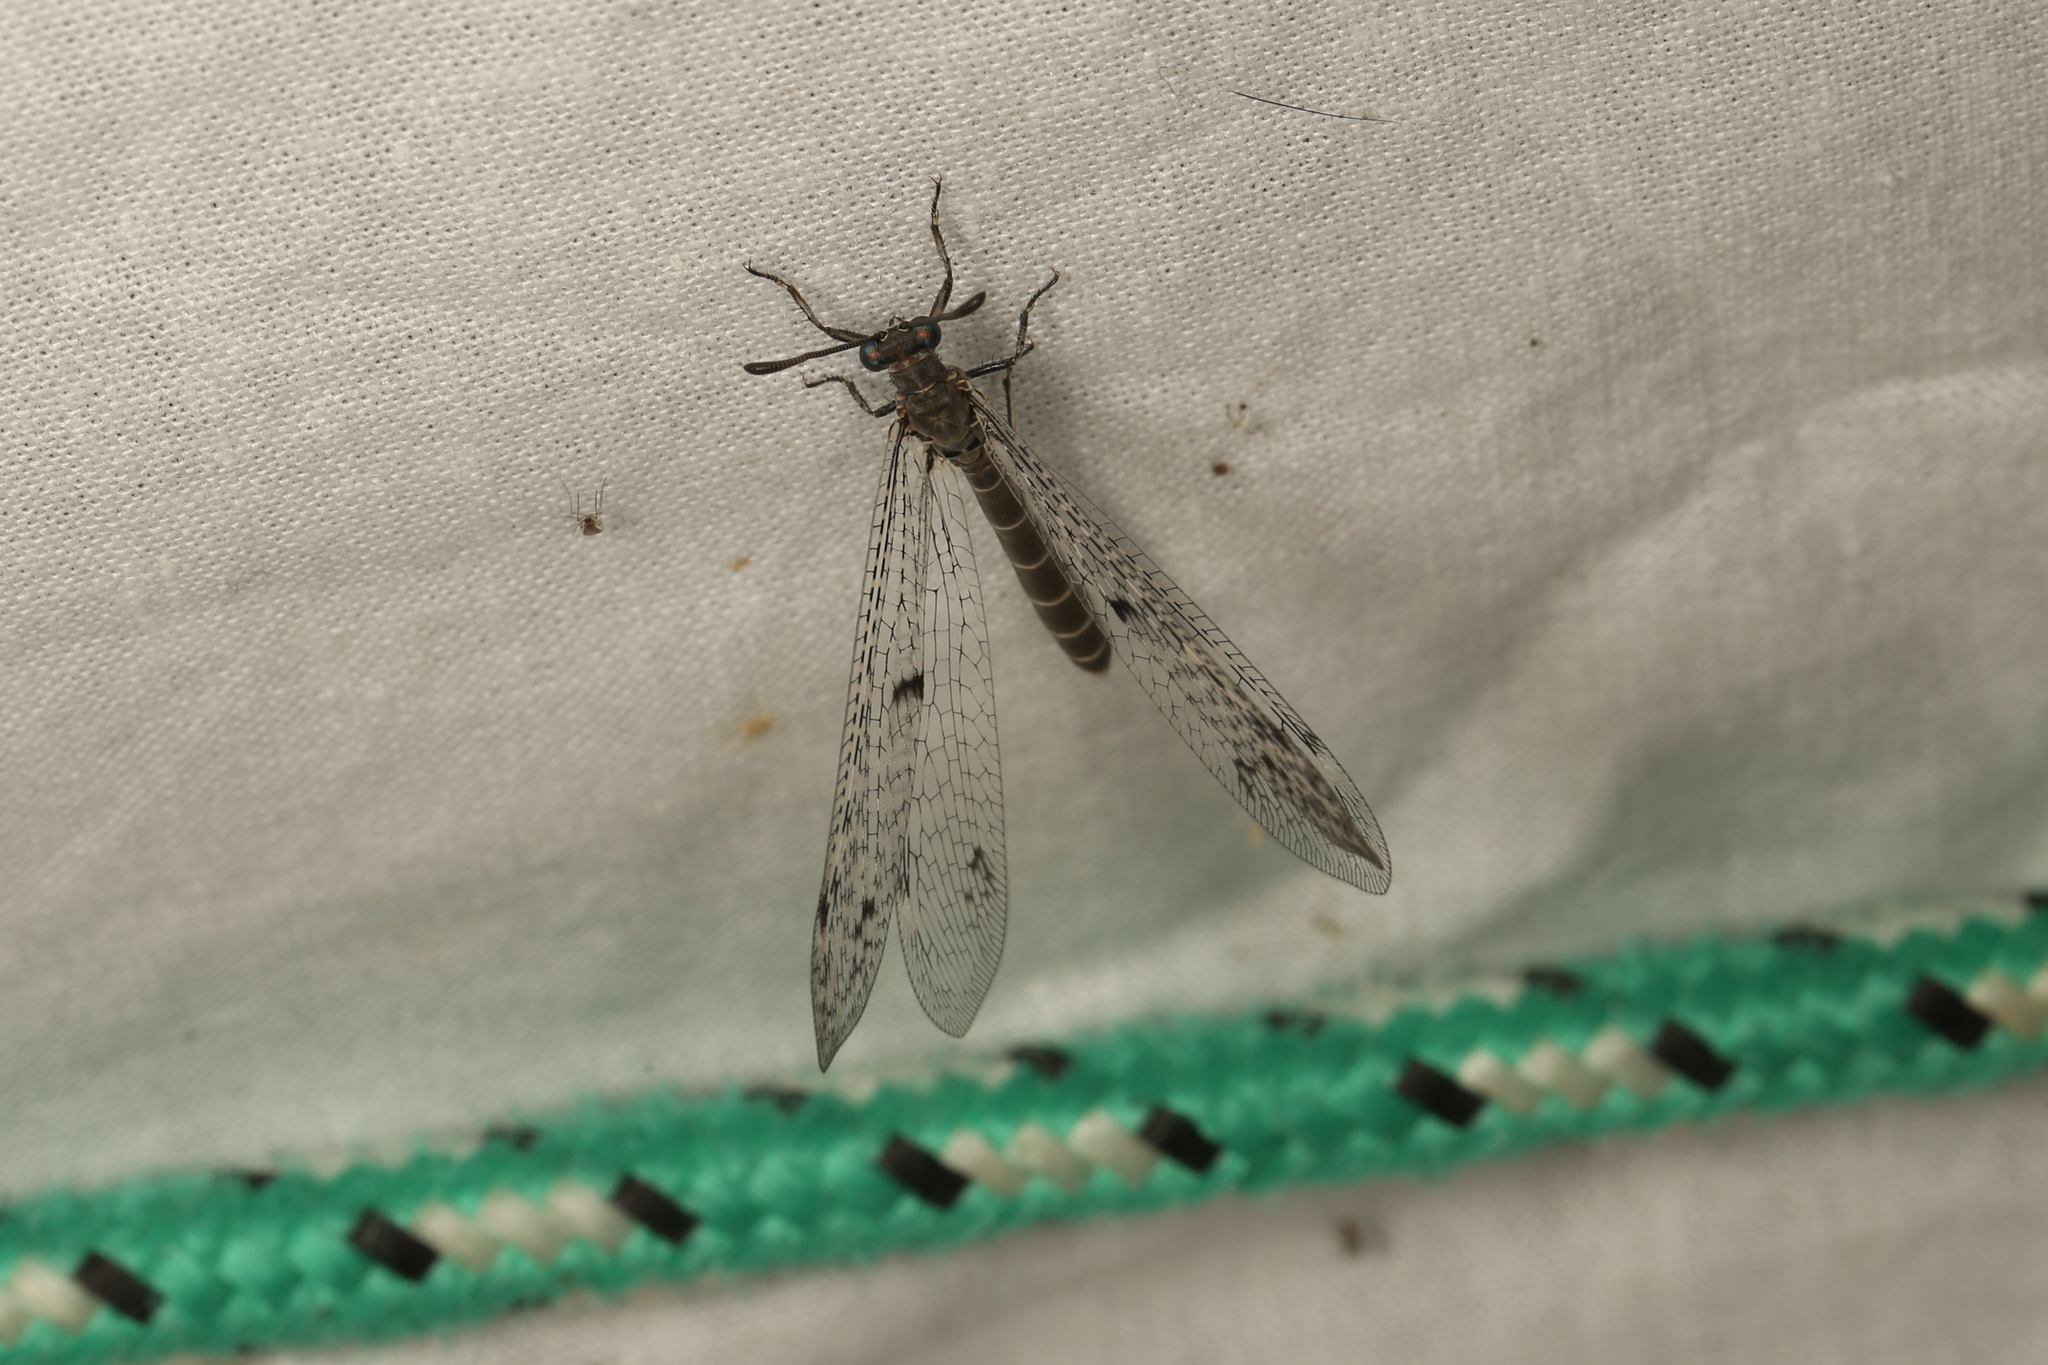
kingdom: Animalia
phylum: Arthropoda
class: Insecta
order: Neuroptera
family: Myrmeleontidae
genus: Bandidus
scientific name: Bandidus canifrons
